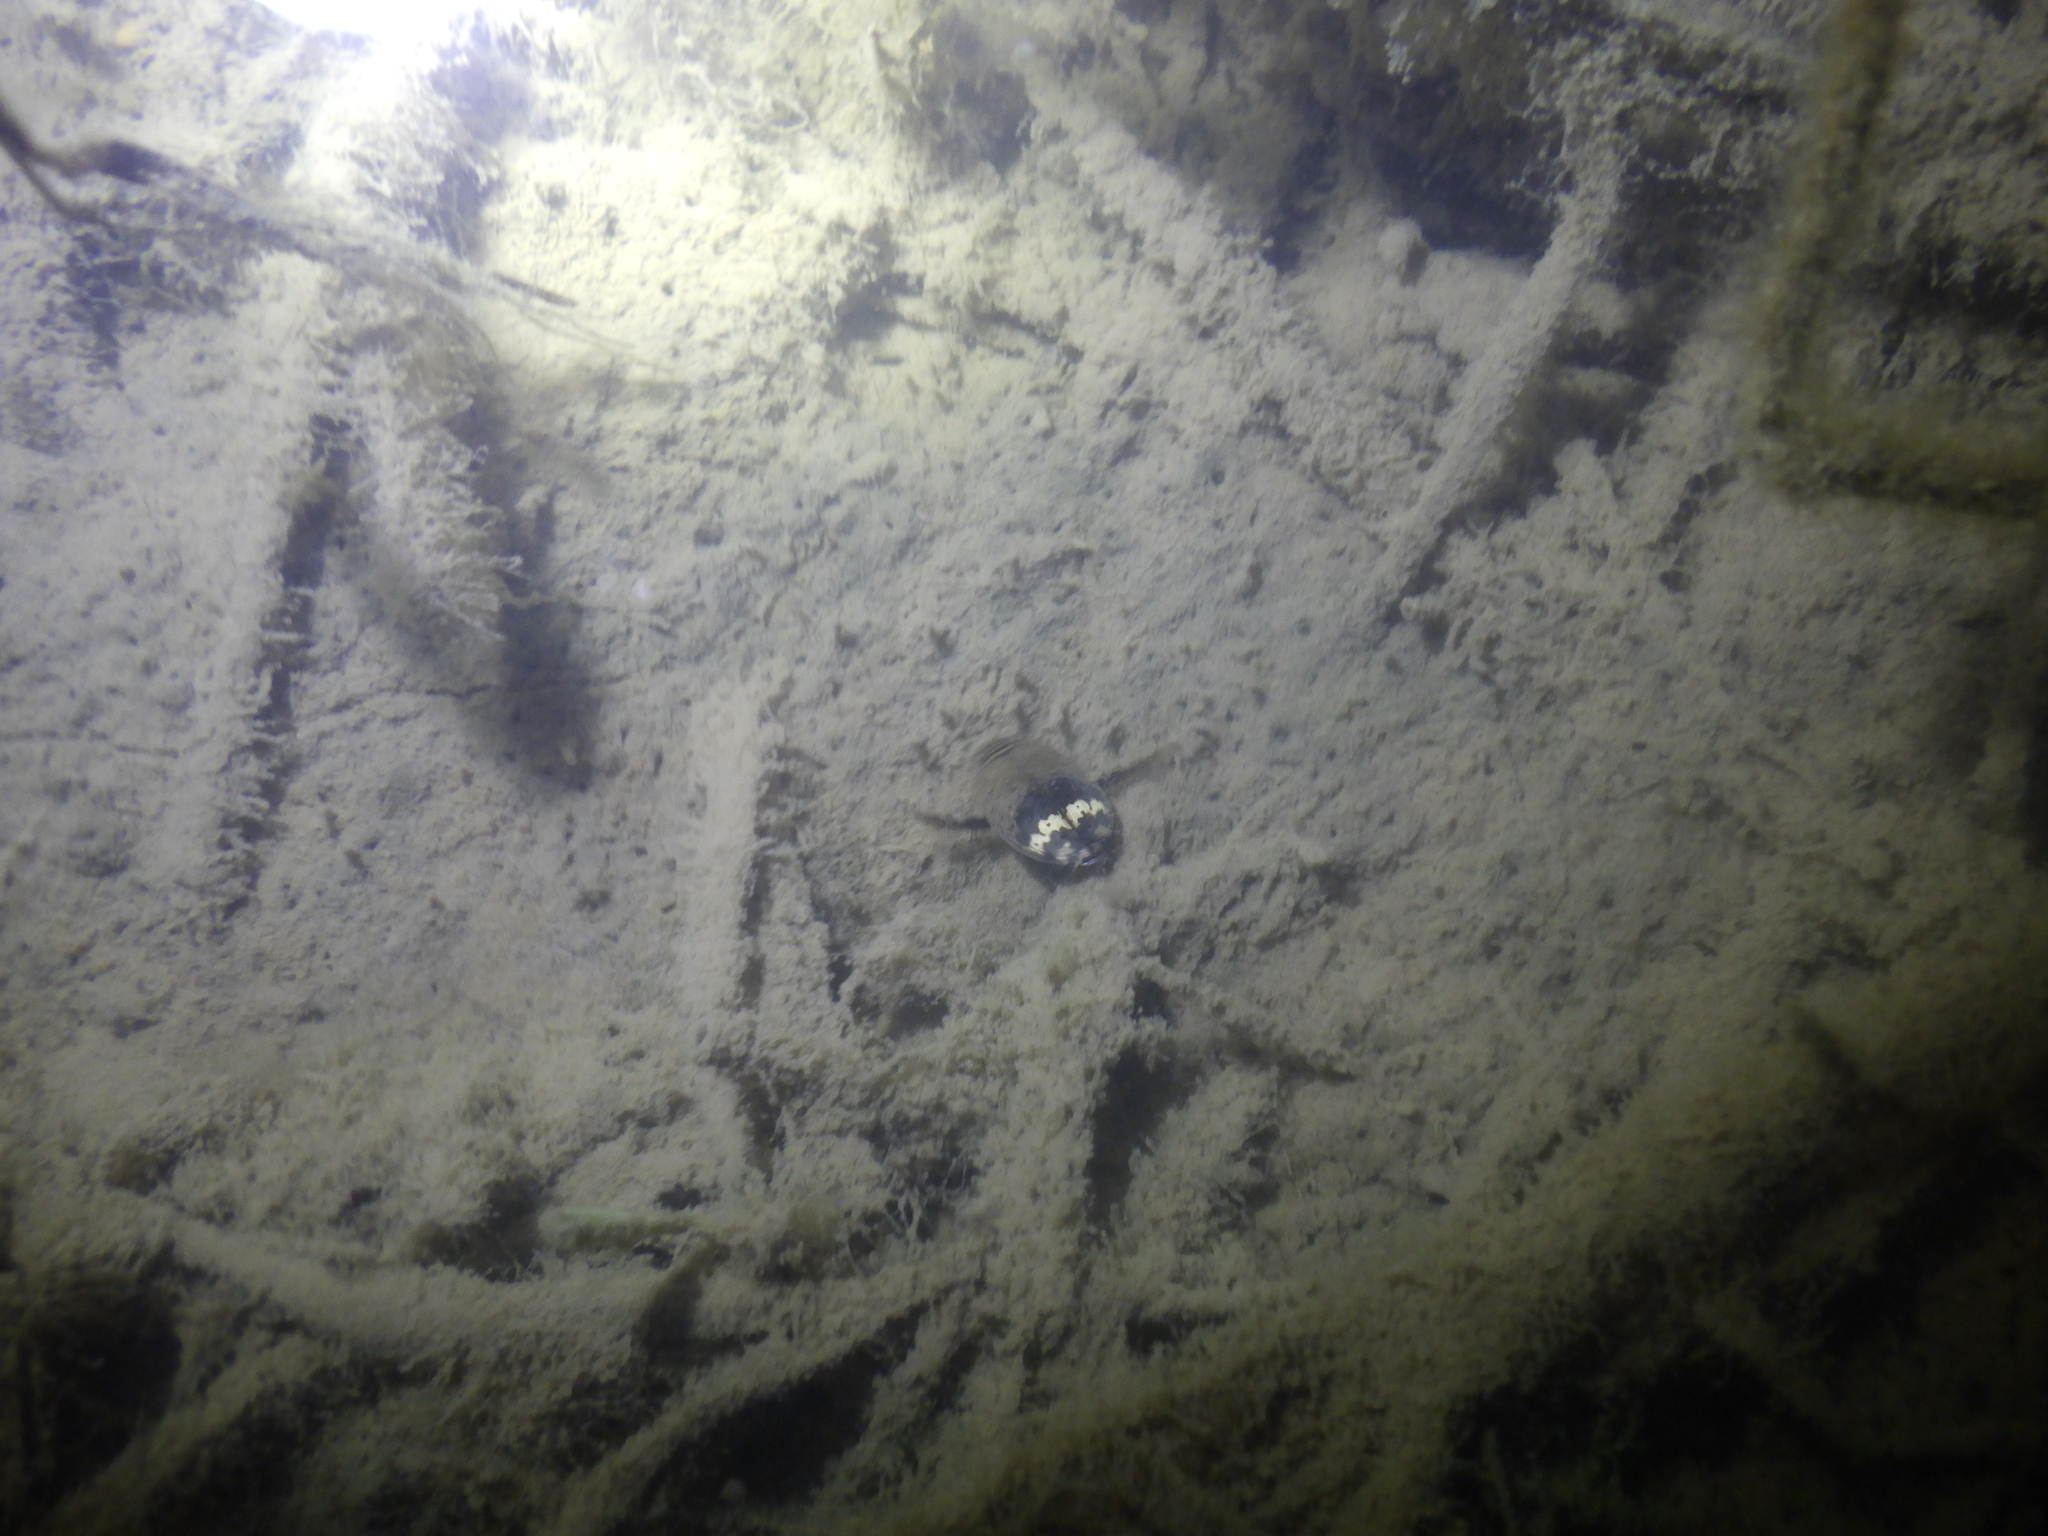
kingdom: Animalia
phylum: Arthropoda
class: Insecta
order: Coleoptera
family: Dytiscidae
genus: Acilius
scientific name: Acilius mediatus
